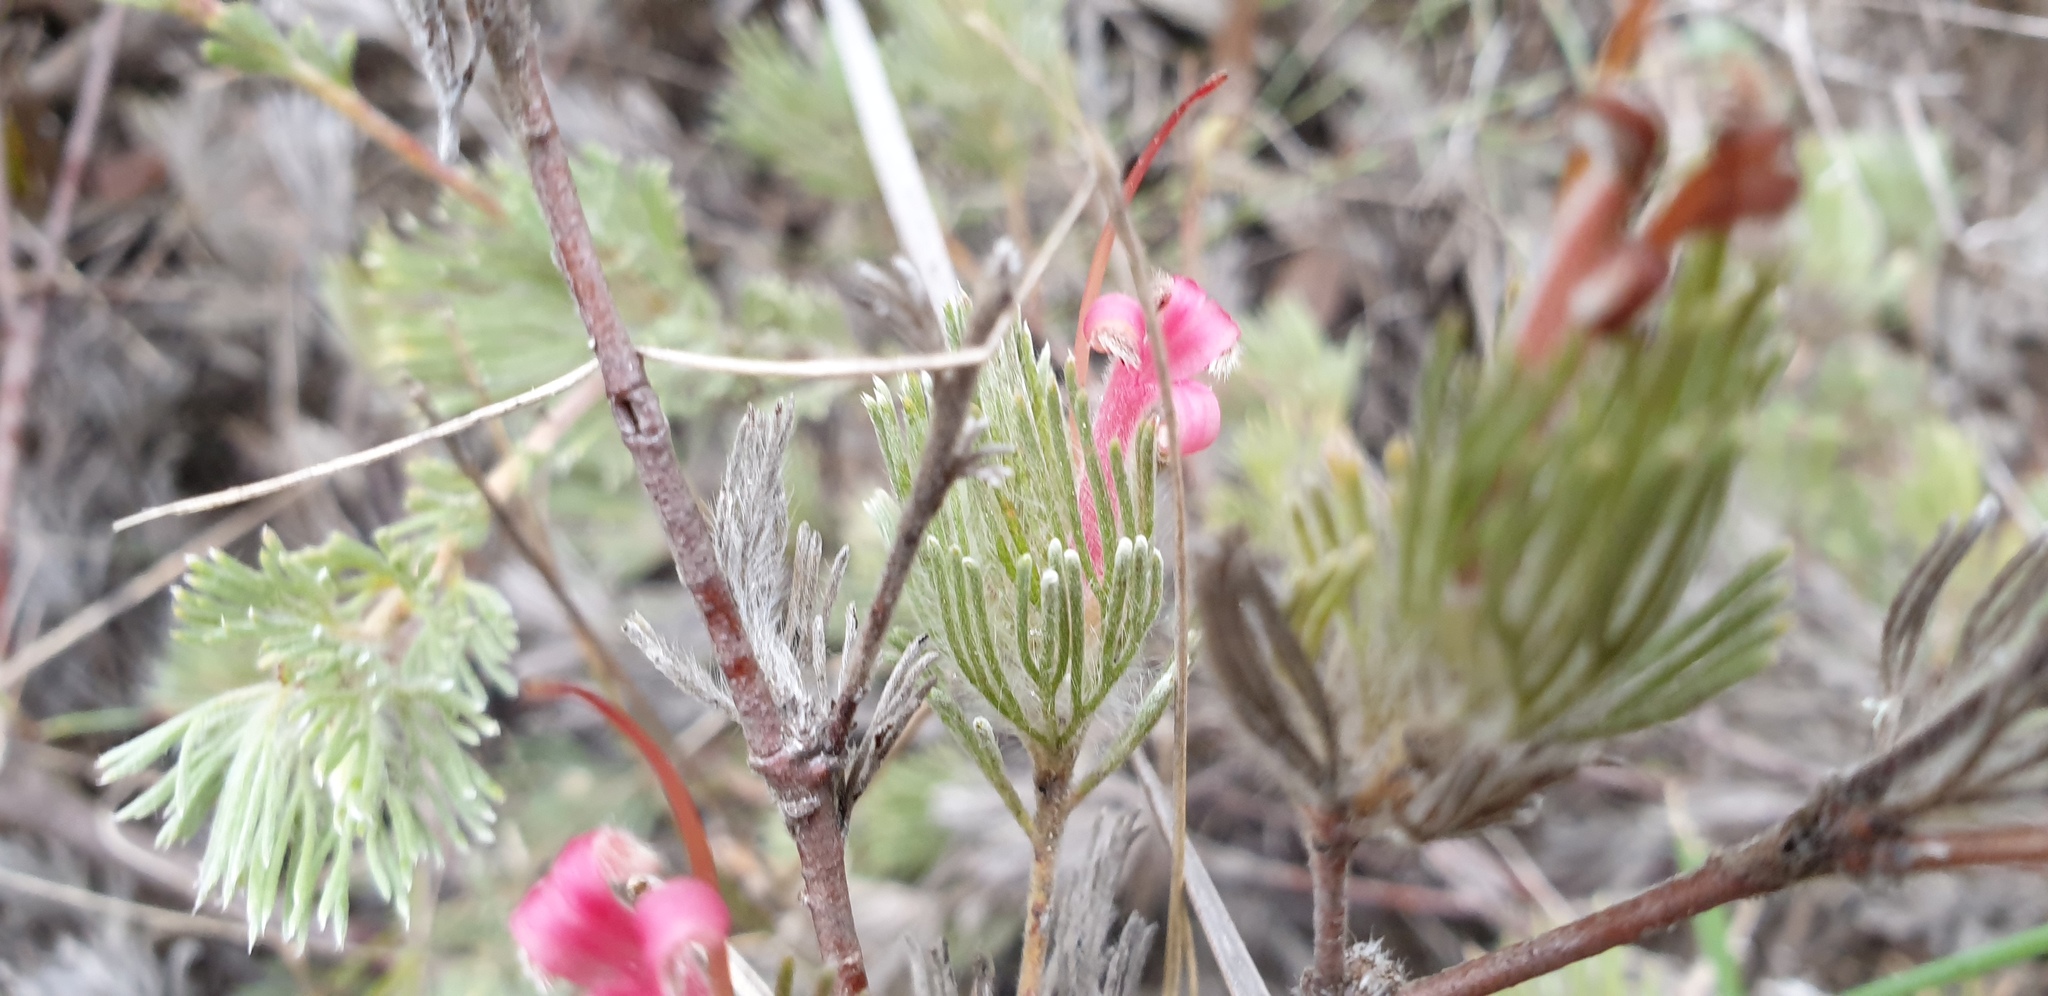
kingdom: Plantae
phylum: Tracheophyta
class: Magnoliopsida
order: Proteales
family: Proteaceae
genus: Adenanthos
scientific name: Adenanthos macropodianus
